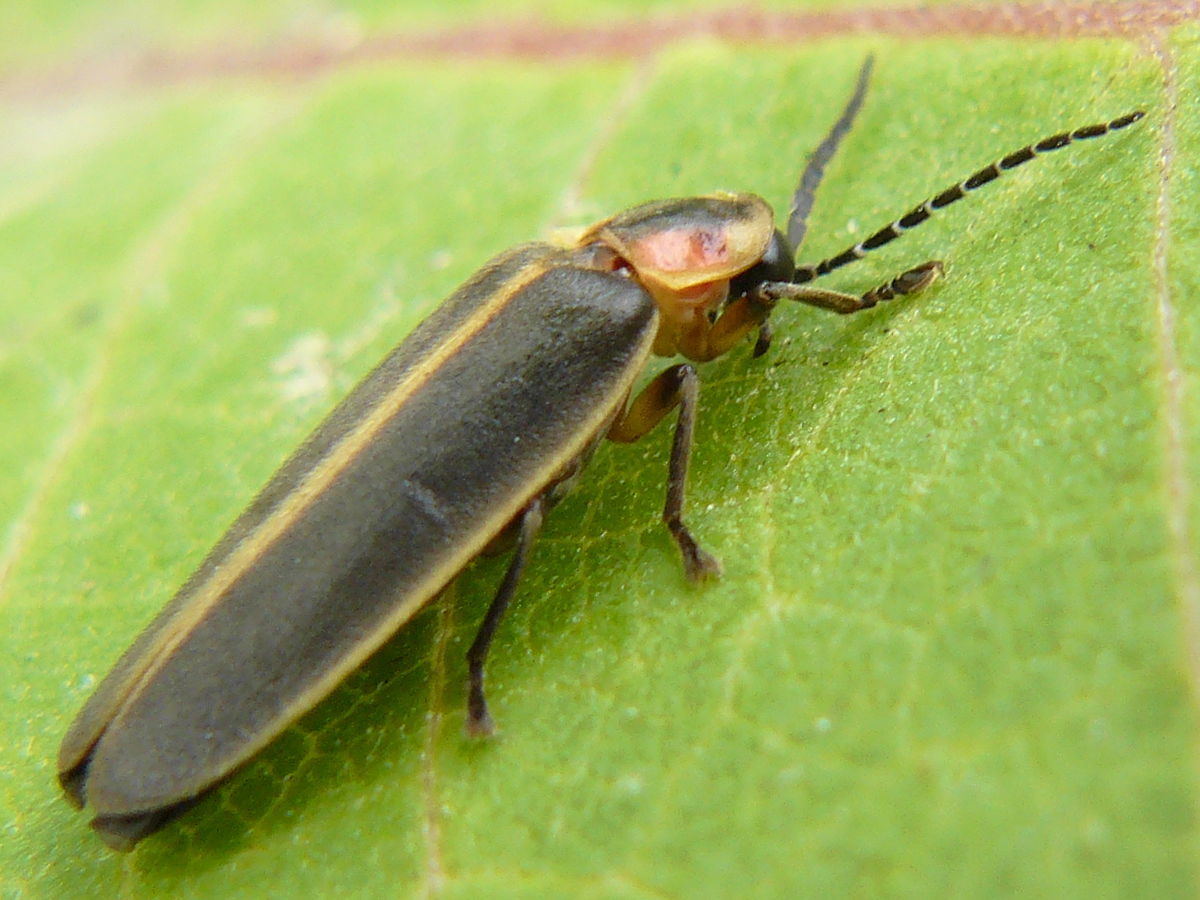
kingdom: Animalia
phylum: Arthropoda
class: Insecta
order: Coleoptera
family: Lampyridae
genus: Photinus
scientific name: Photinus pyralis
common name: Big dipper firefly
